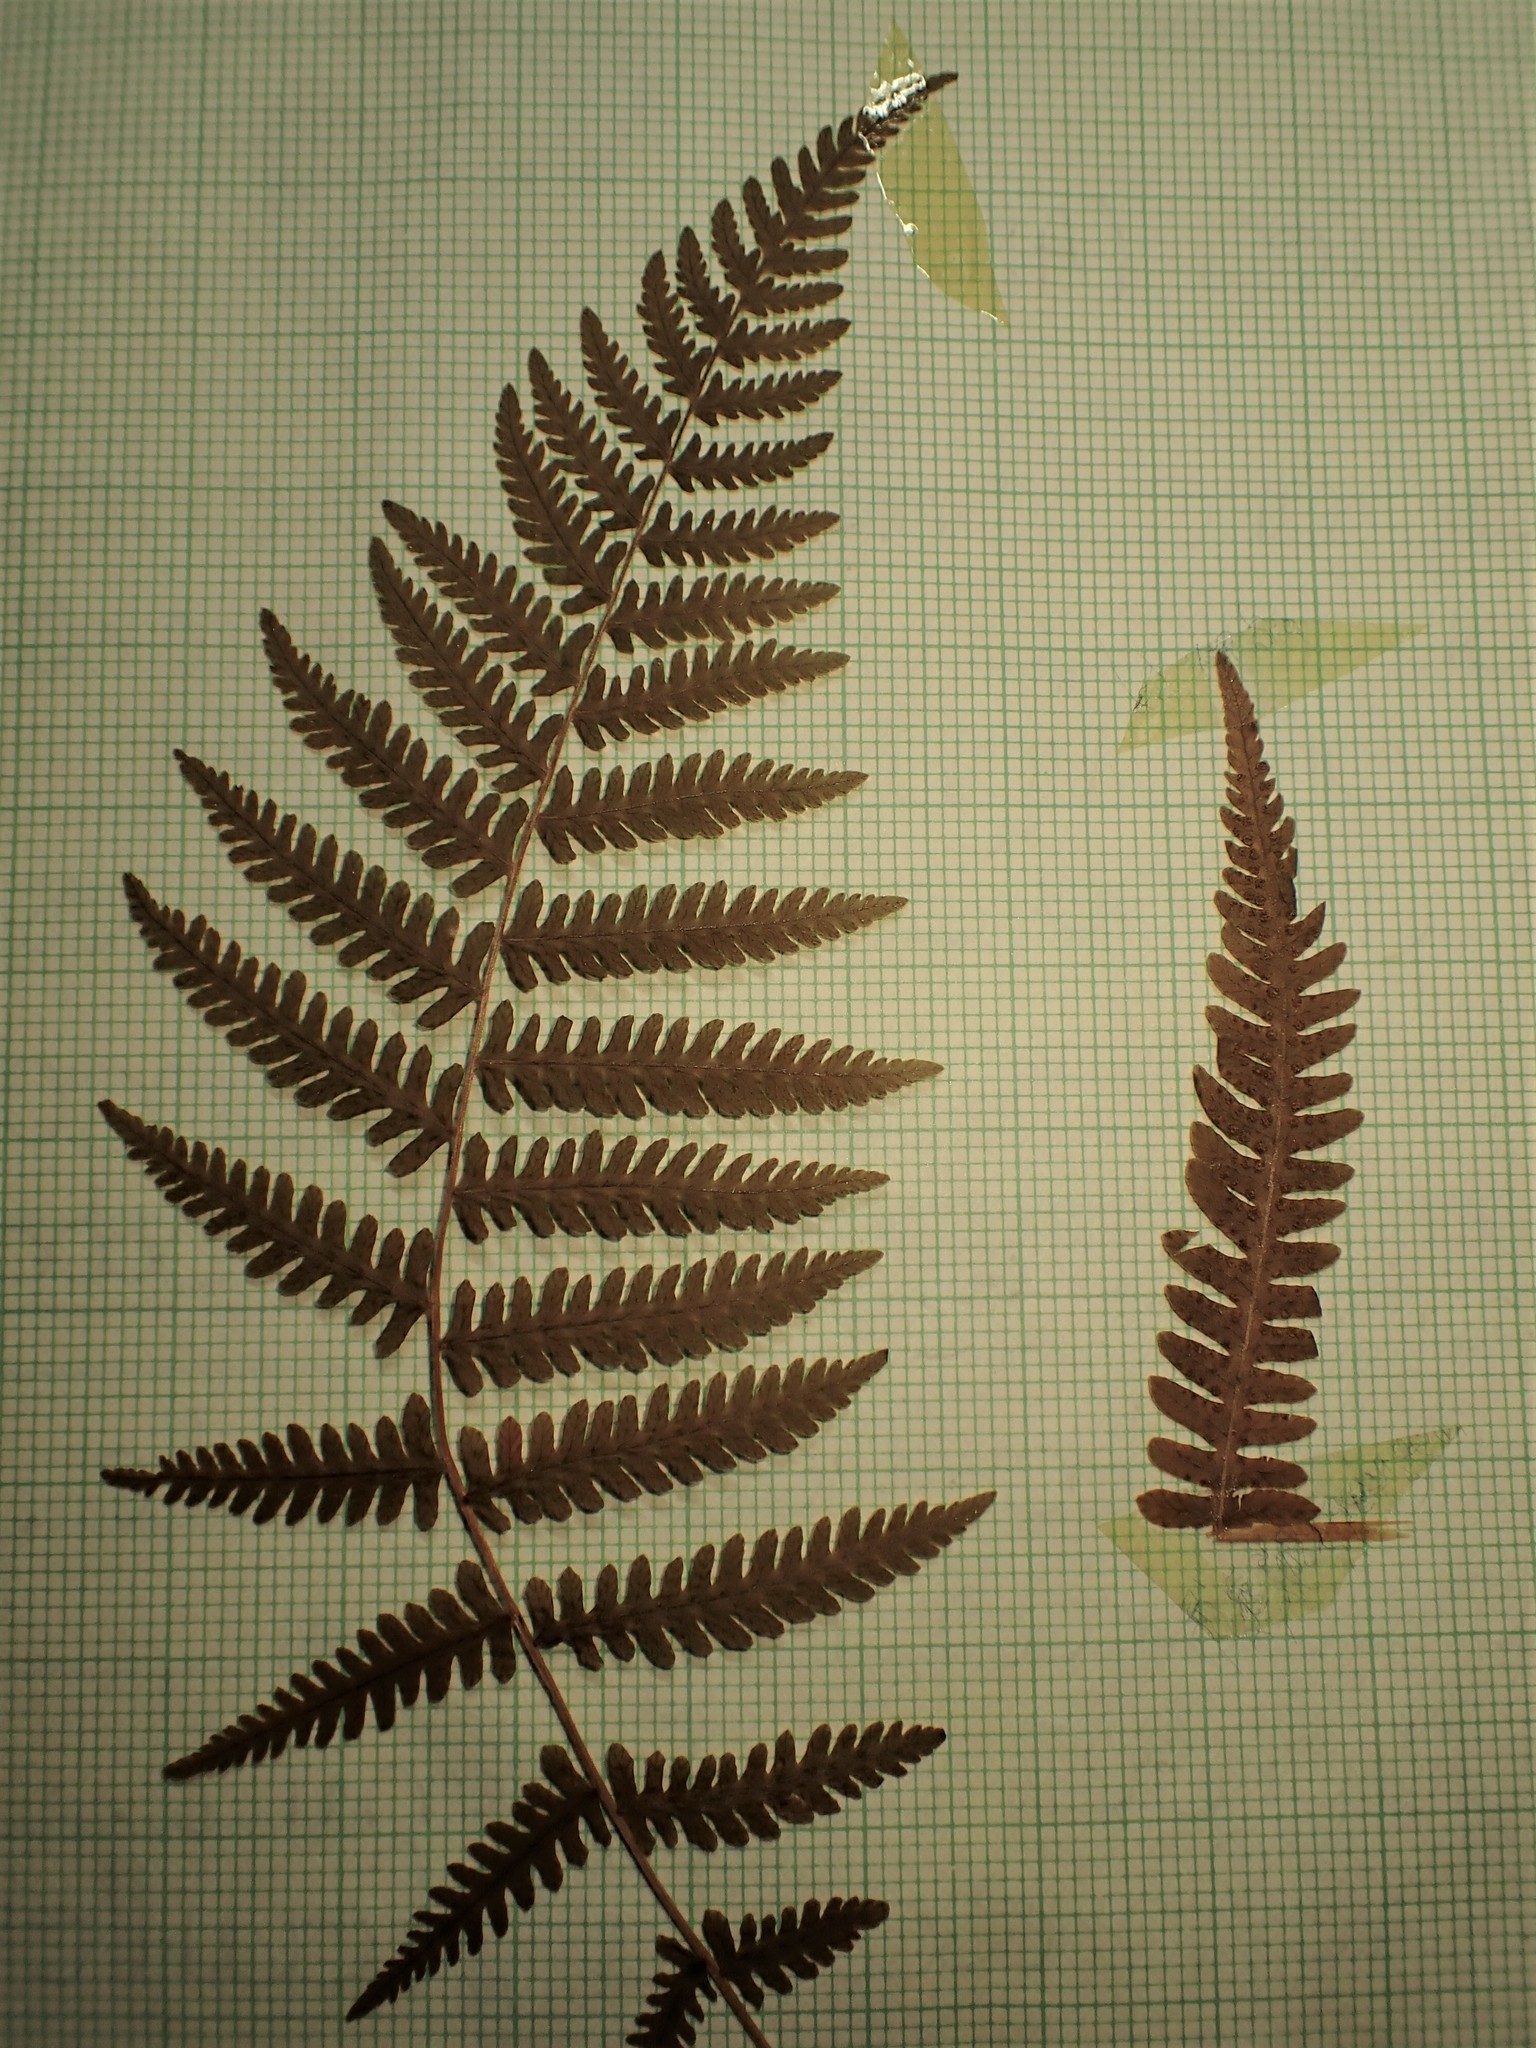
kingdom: Plantae
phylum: Tracheophyta
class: Polypodiopsida
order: Polypodiales
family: Thelypteridaceae
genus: Amauropelta
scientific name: Amauropelta noveboracensis
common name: New york fern
